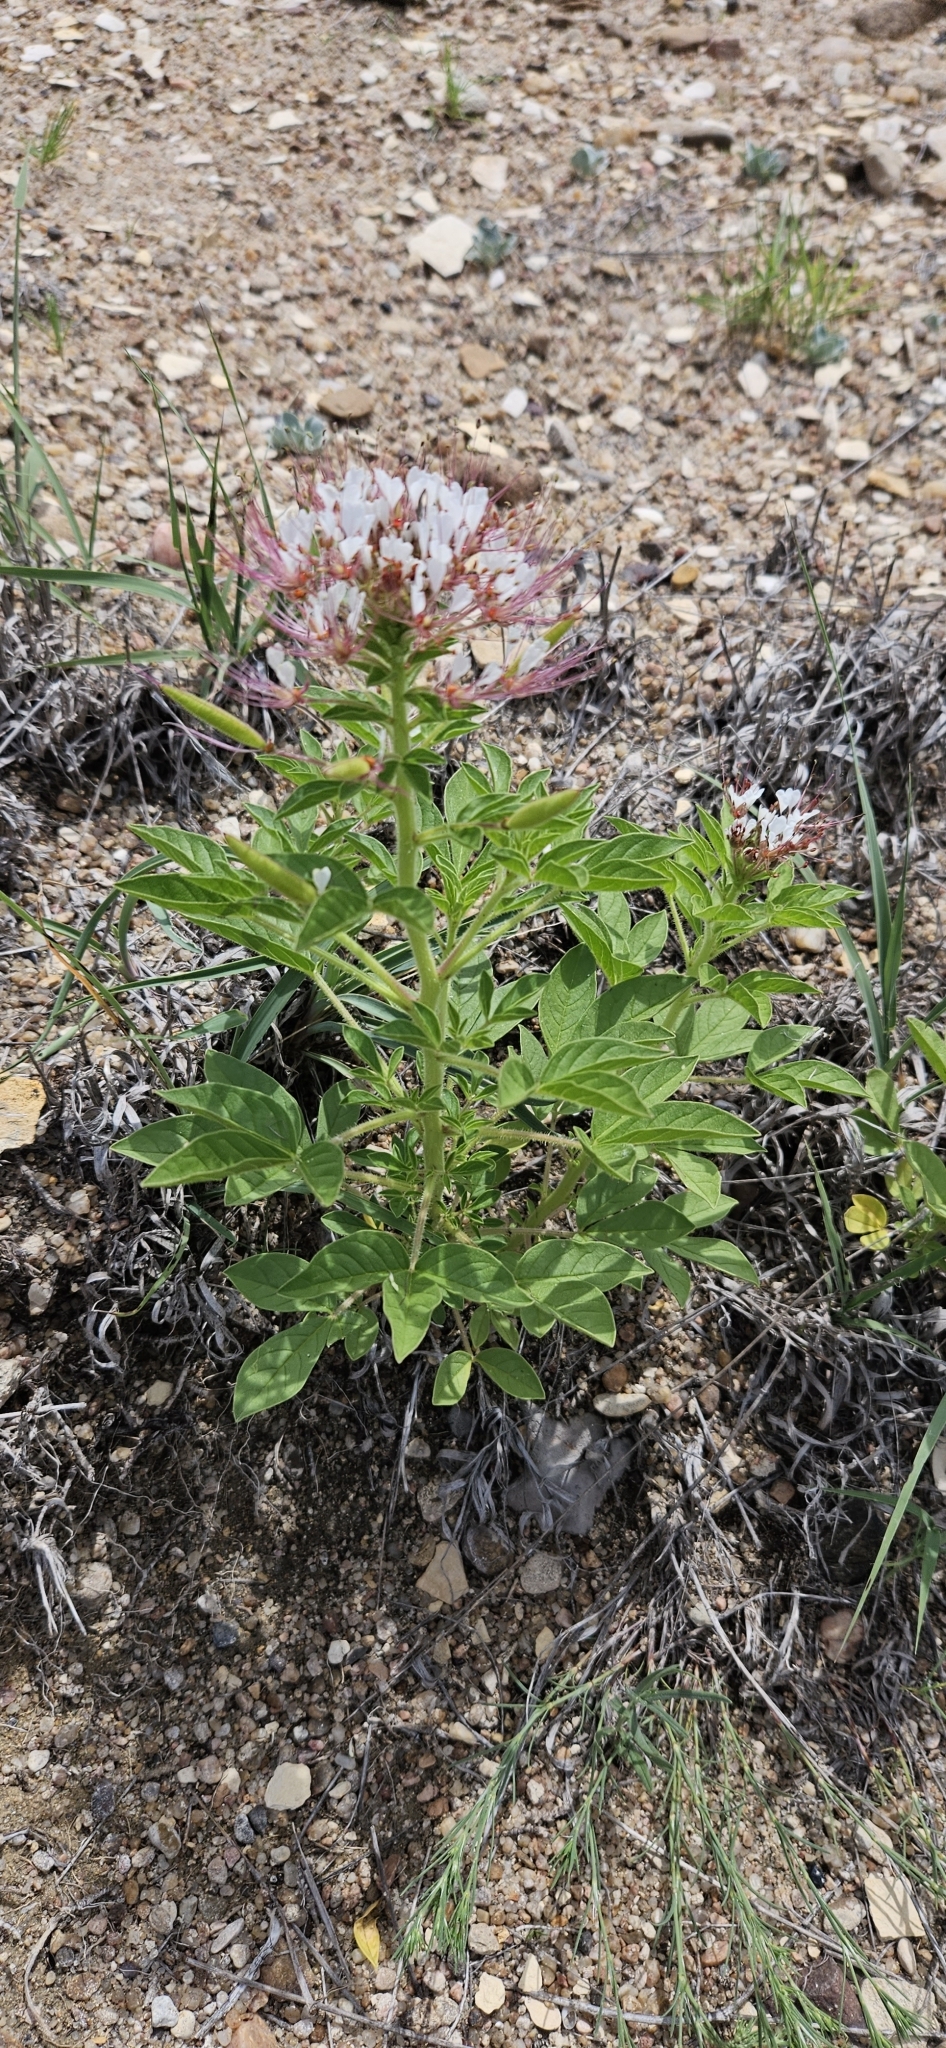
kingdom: Plantae
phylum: Tracheophyta
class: Magnoliopsida
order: Brassicales
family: Cleomaceae
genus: Polanisia
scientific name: Polanisia dodecandra
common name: Clammyweed
